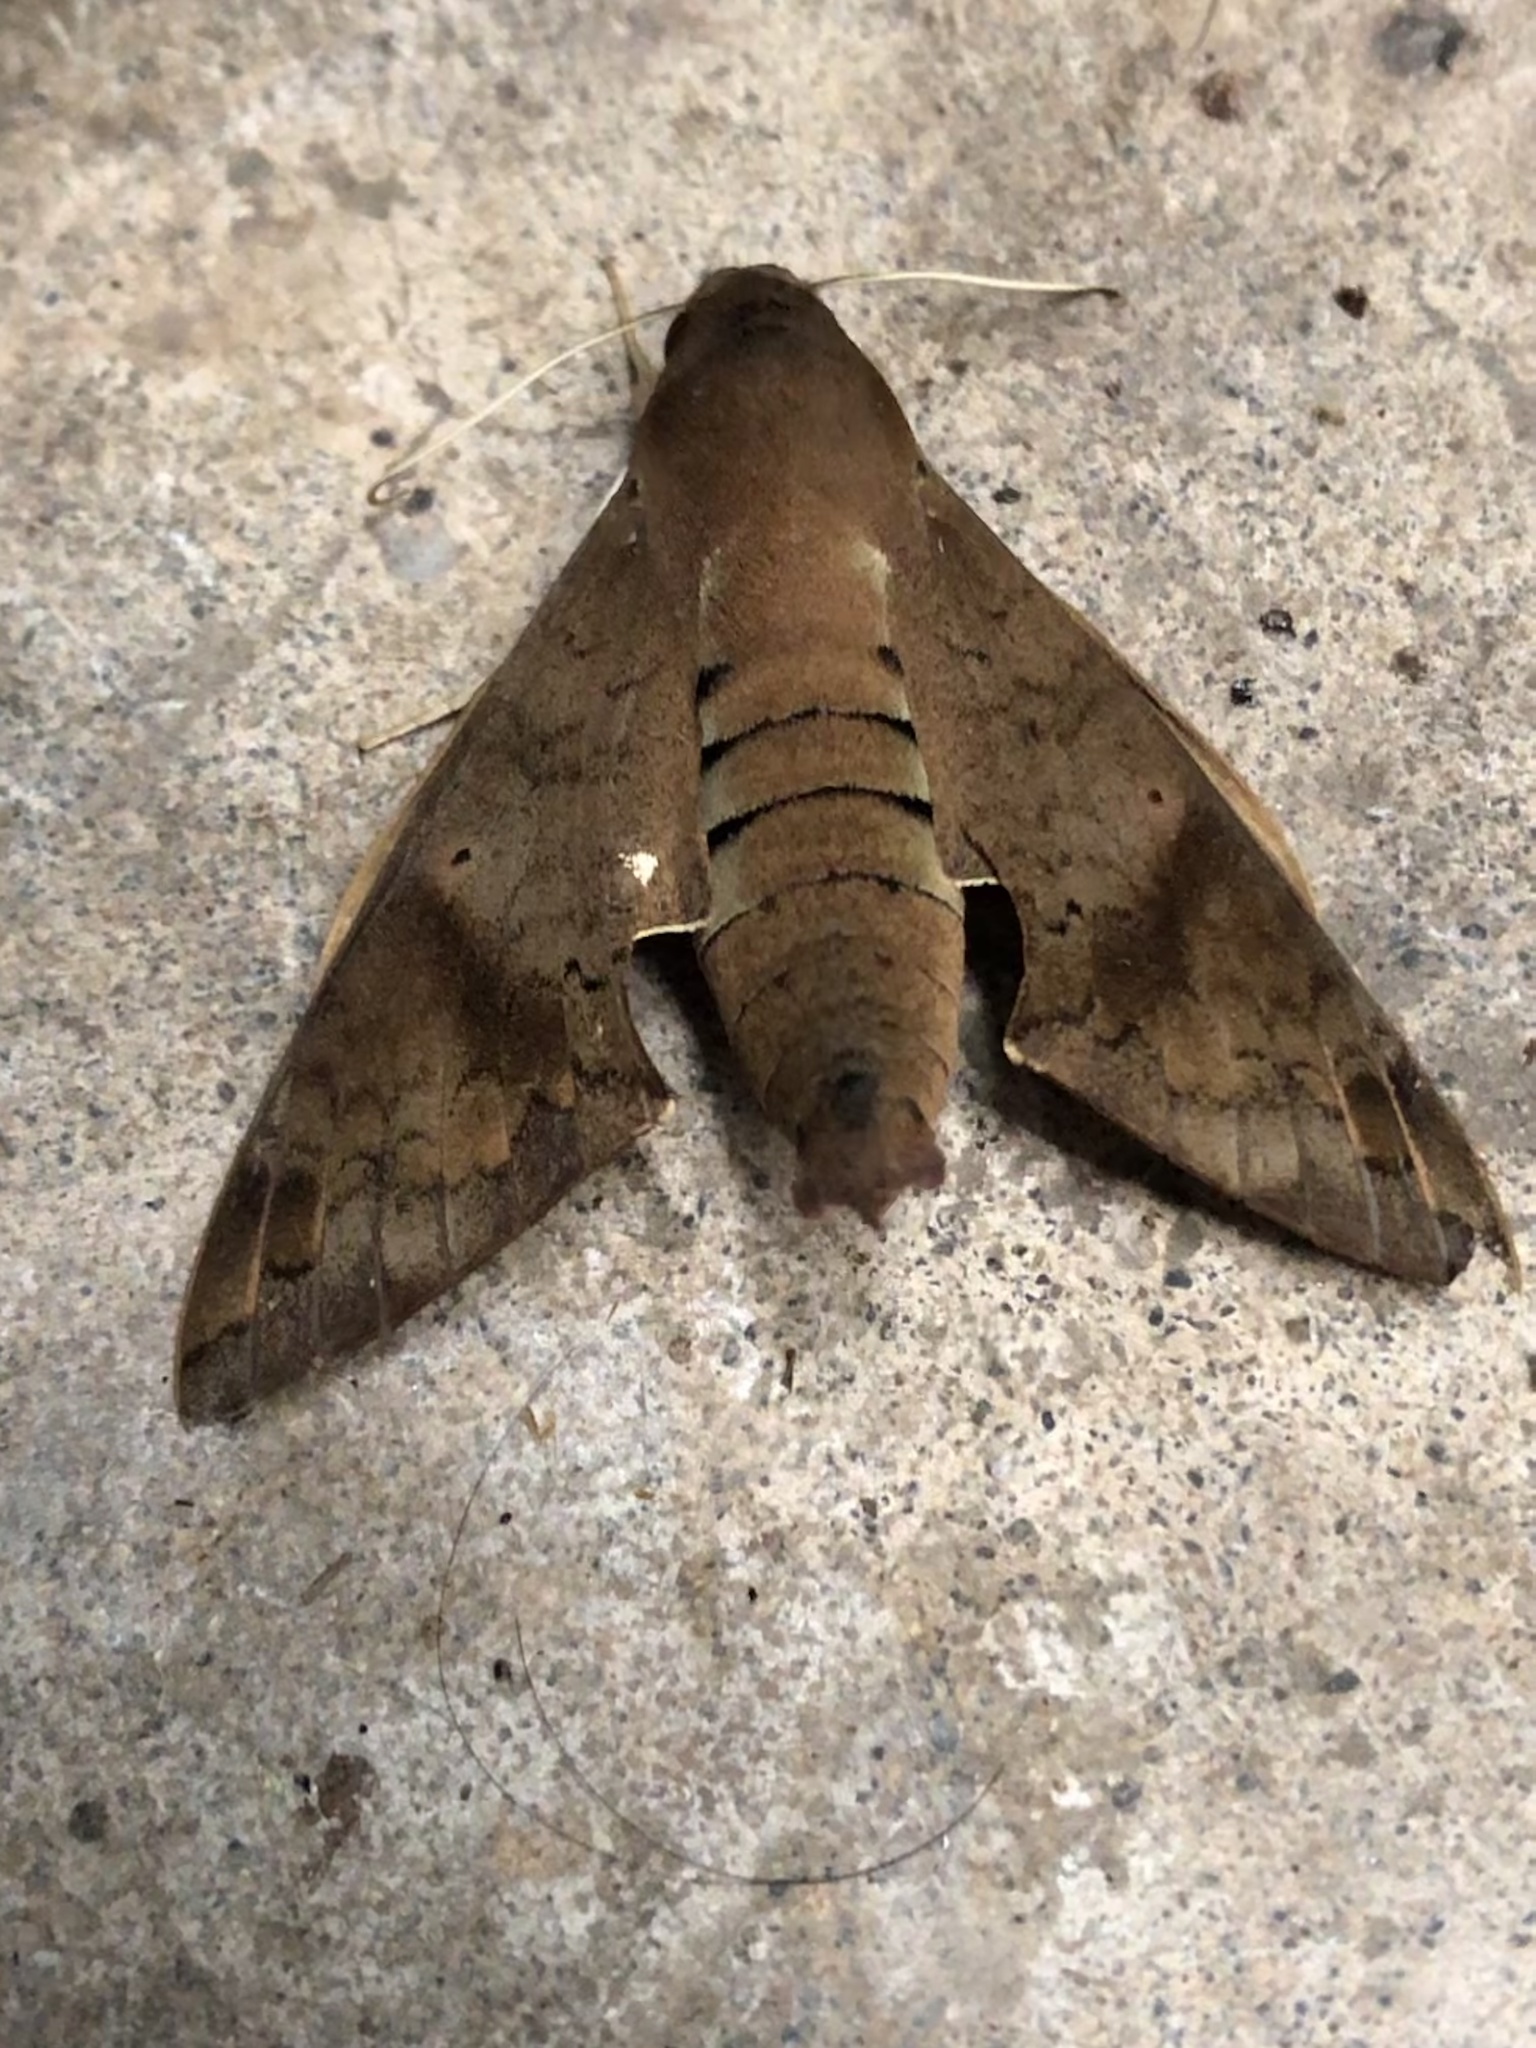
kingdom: Animalia
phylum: Arthropoda
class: Insecta
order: Lepidoptera
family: Sphingidae
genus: Pachylioides
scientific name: Pachylioides resumens
